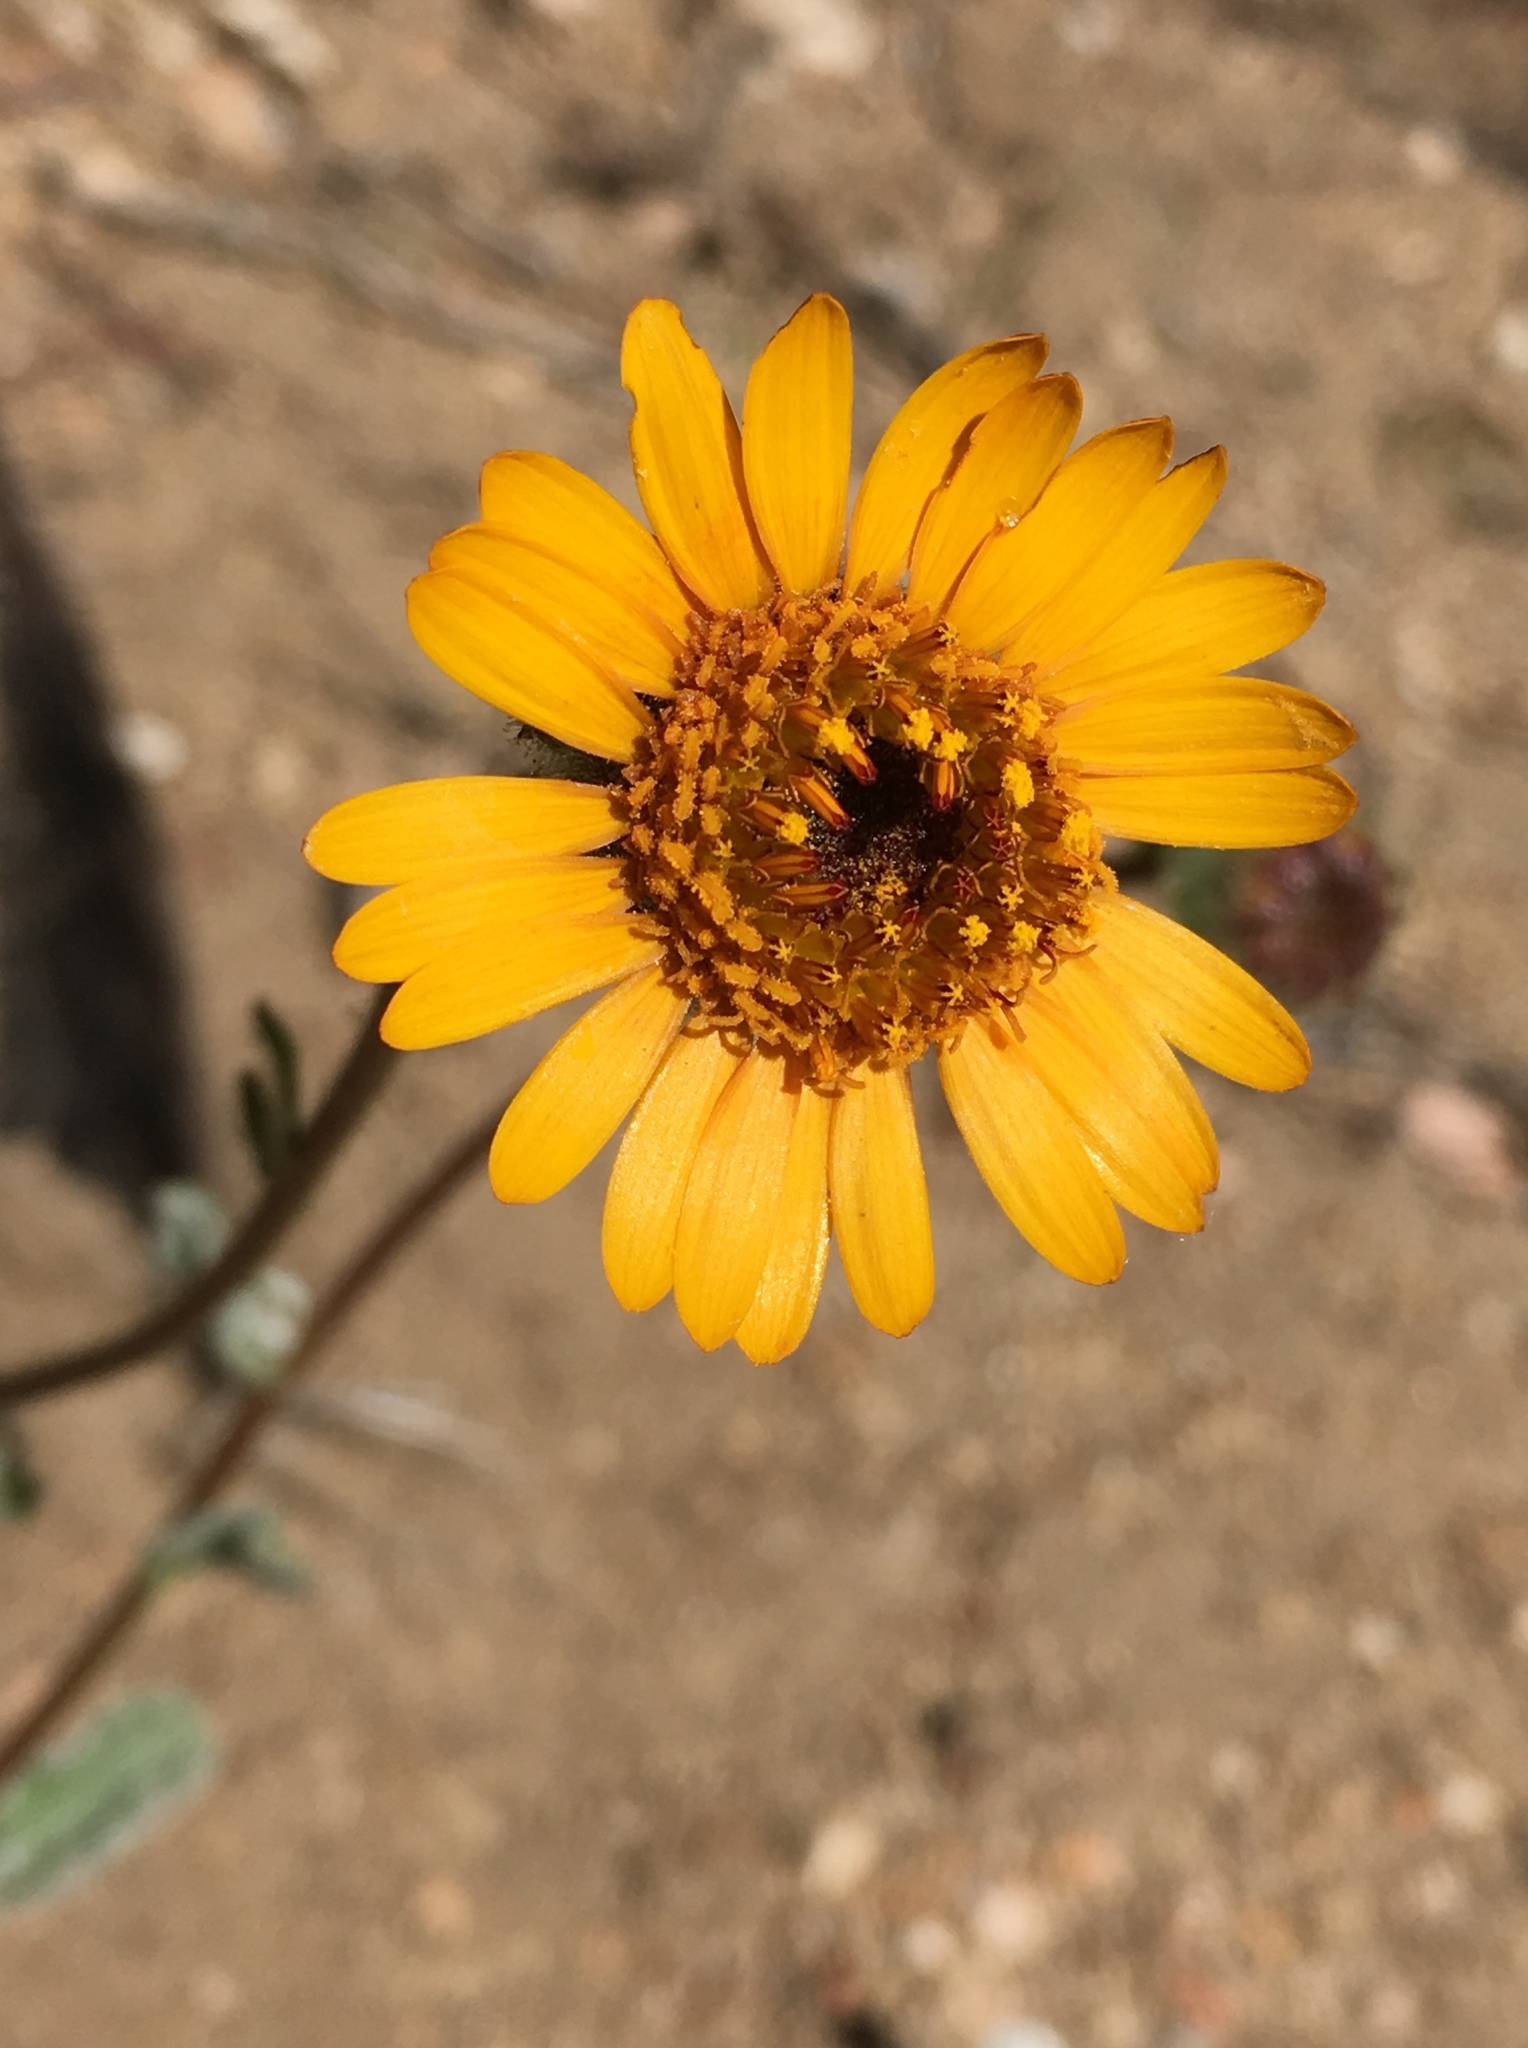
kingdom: Plantae
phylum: Tracheophyta
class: Magnoliopsida
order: Asterales
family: Asteraceae
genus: Hulsea
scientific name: Hulsea vestita
